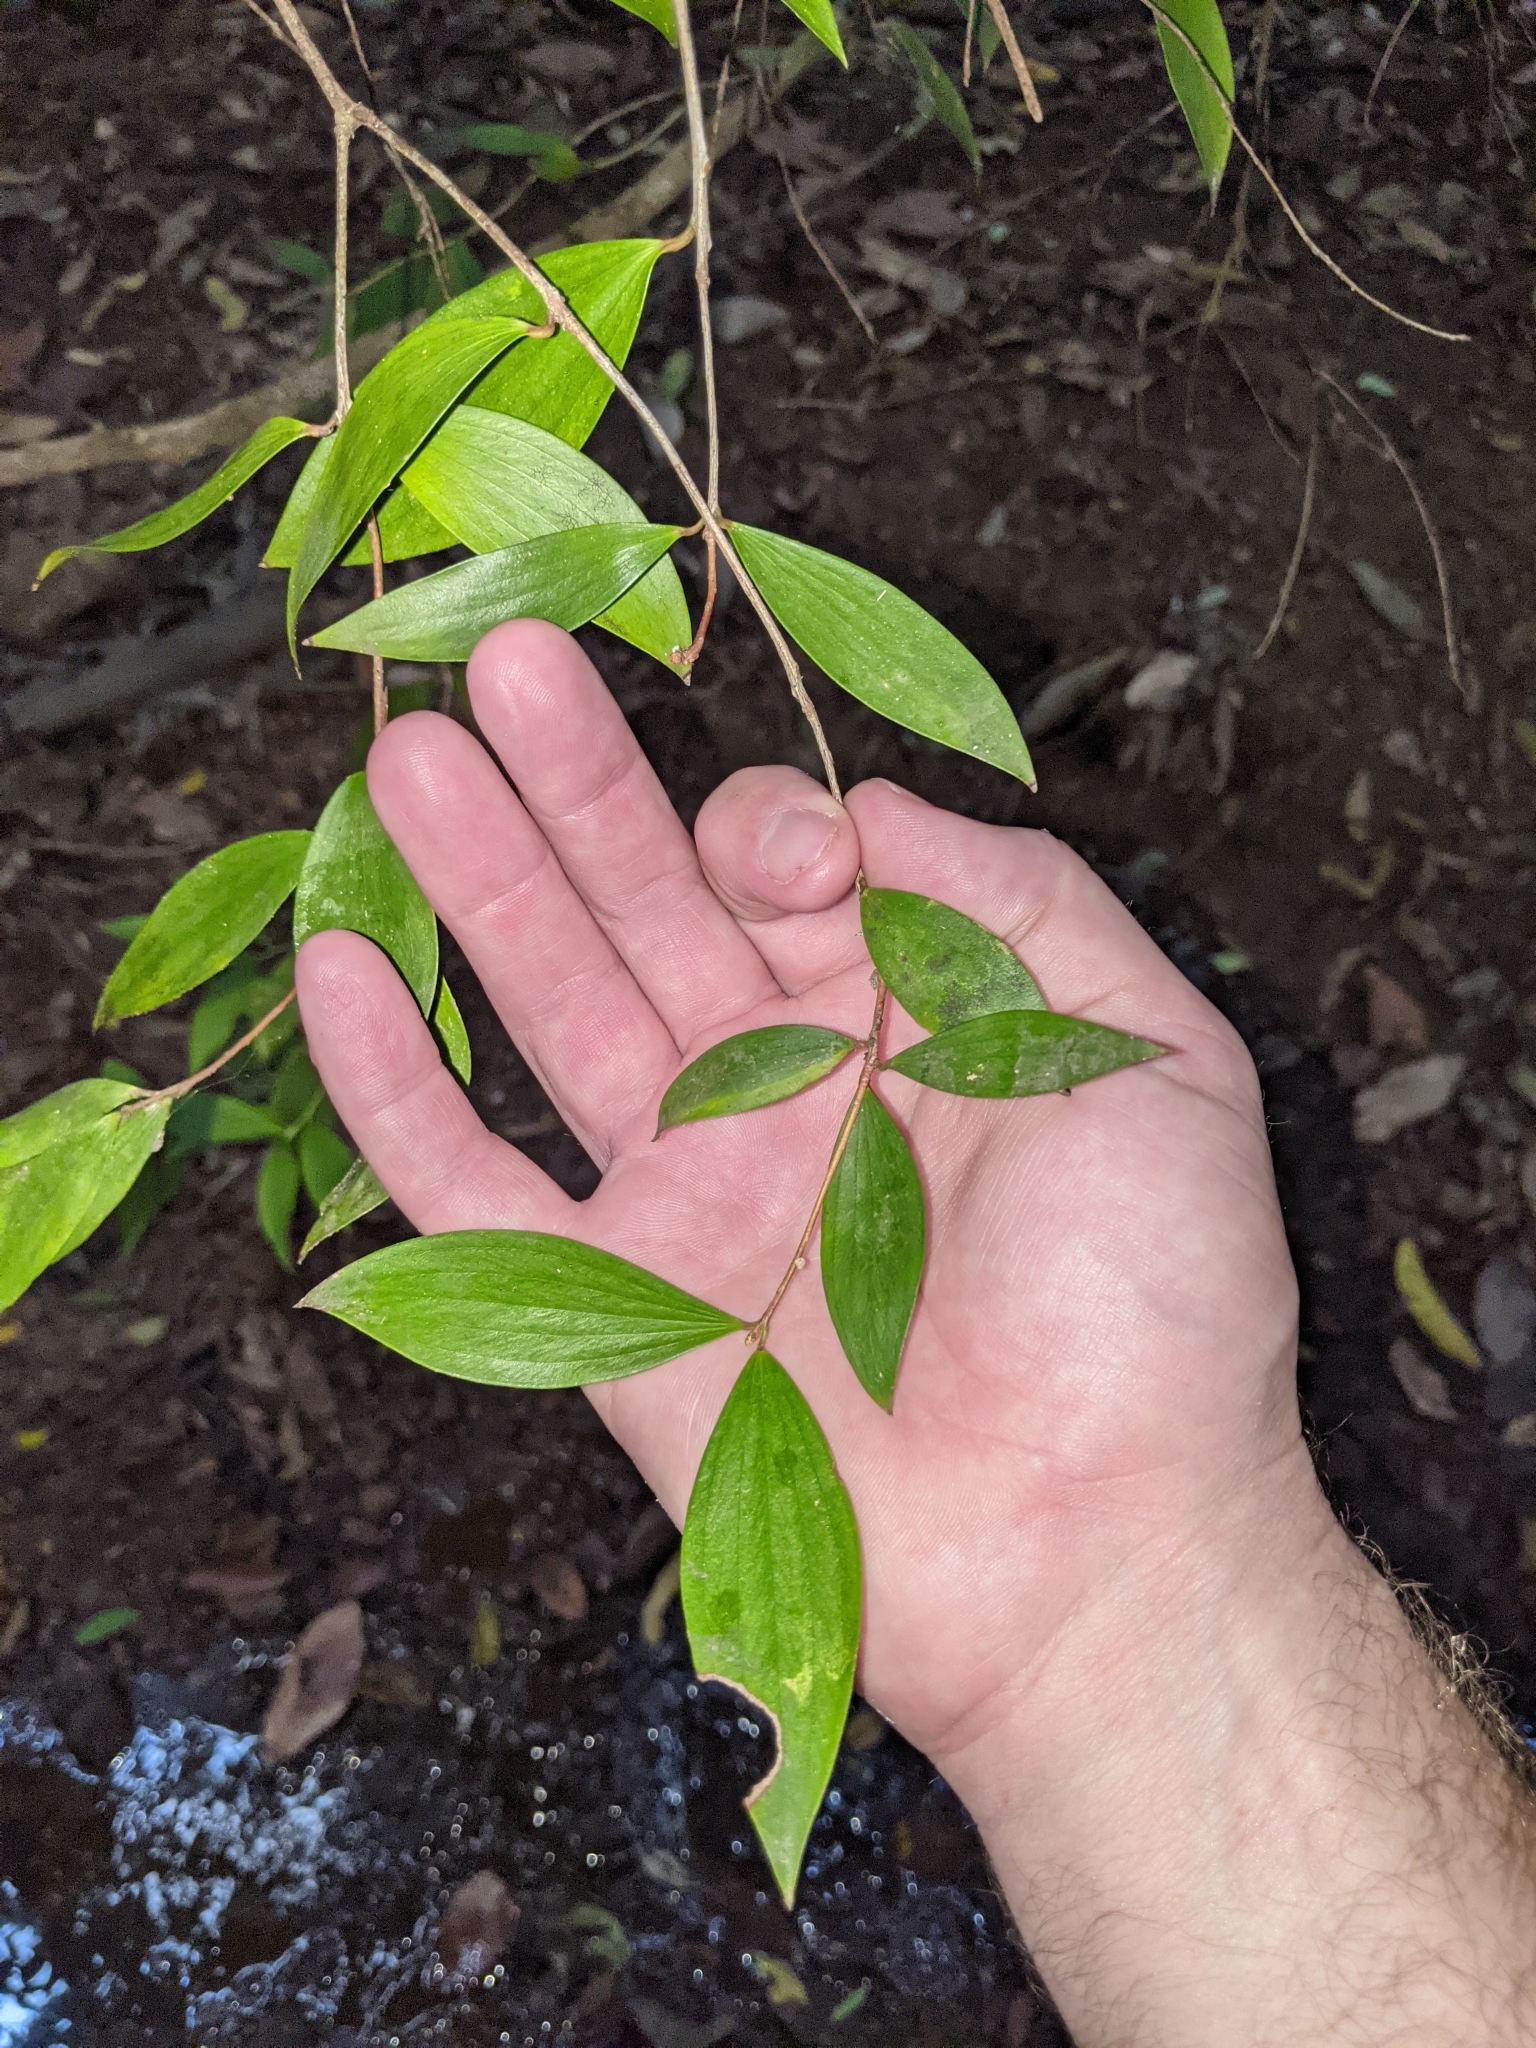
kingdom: Plantae
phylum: Tracheophyta
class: Magnoliopsida
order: Ericales
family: Ericaceae
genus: Trochocarpa
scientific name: Trochocarpa laurina
